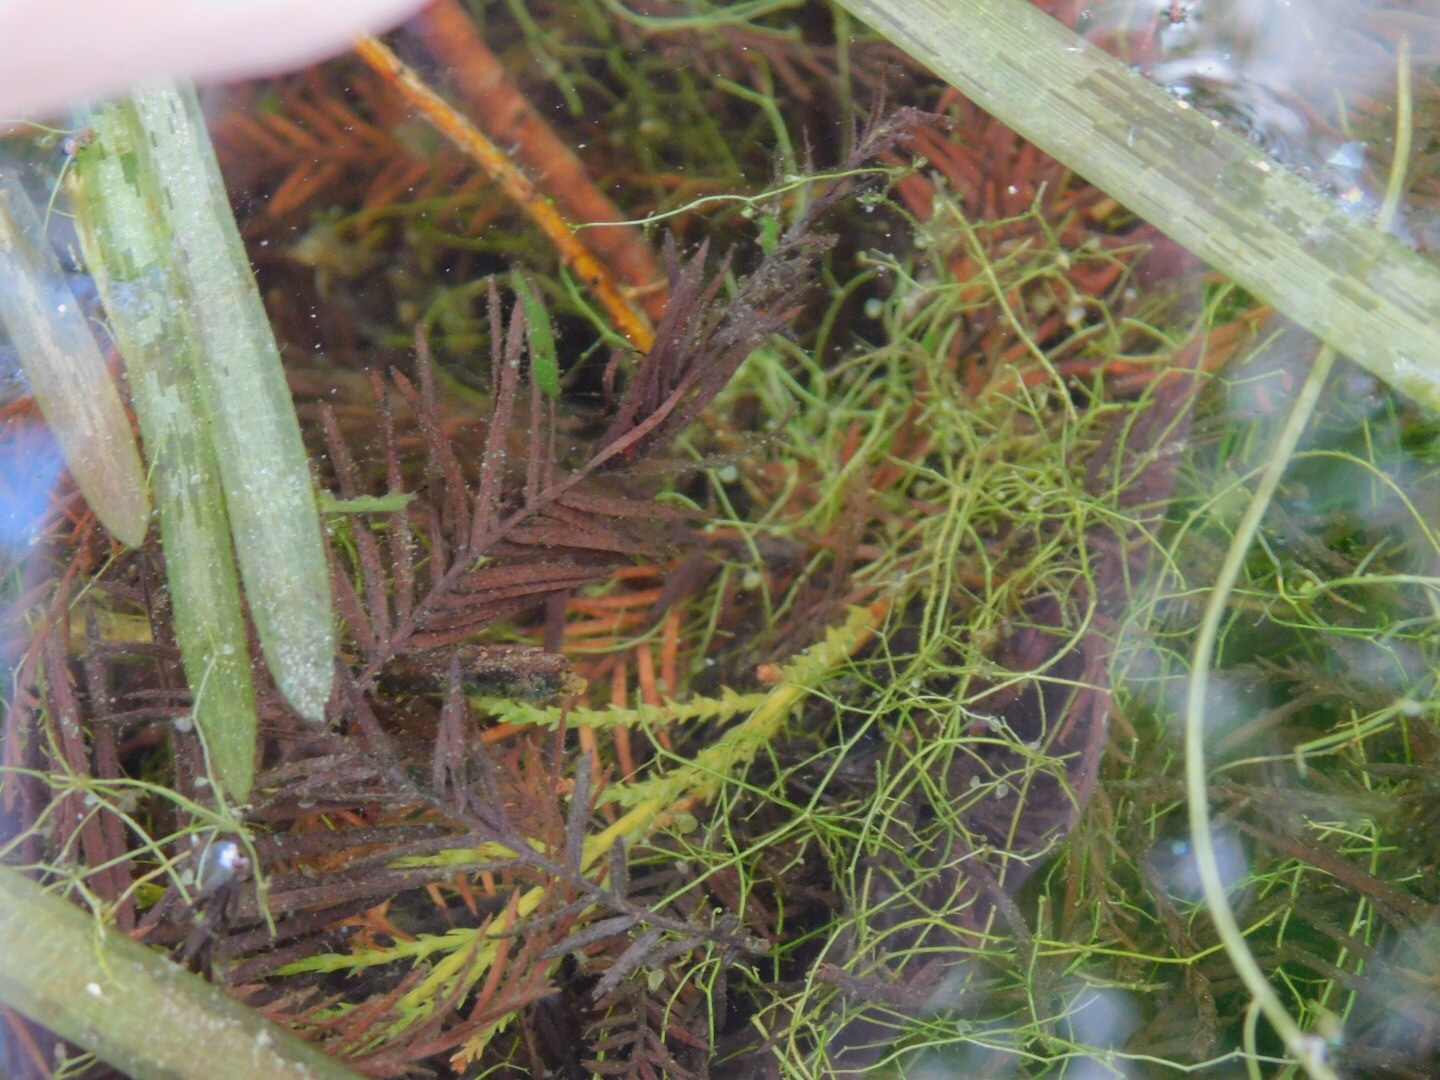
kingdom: Plantae
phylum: Tracheophyta
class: Magnoliopsida
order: Lamiales
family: Lentibulariaceae
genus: Utricularia
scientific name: Utricularia gibba
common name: Humped bladderwort
